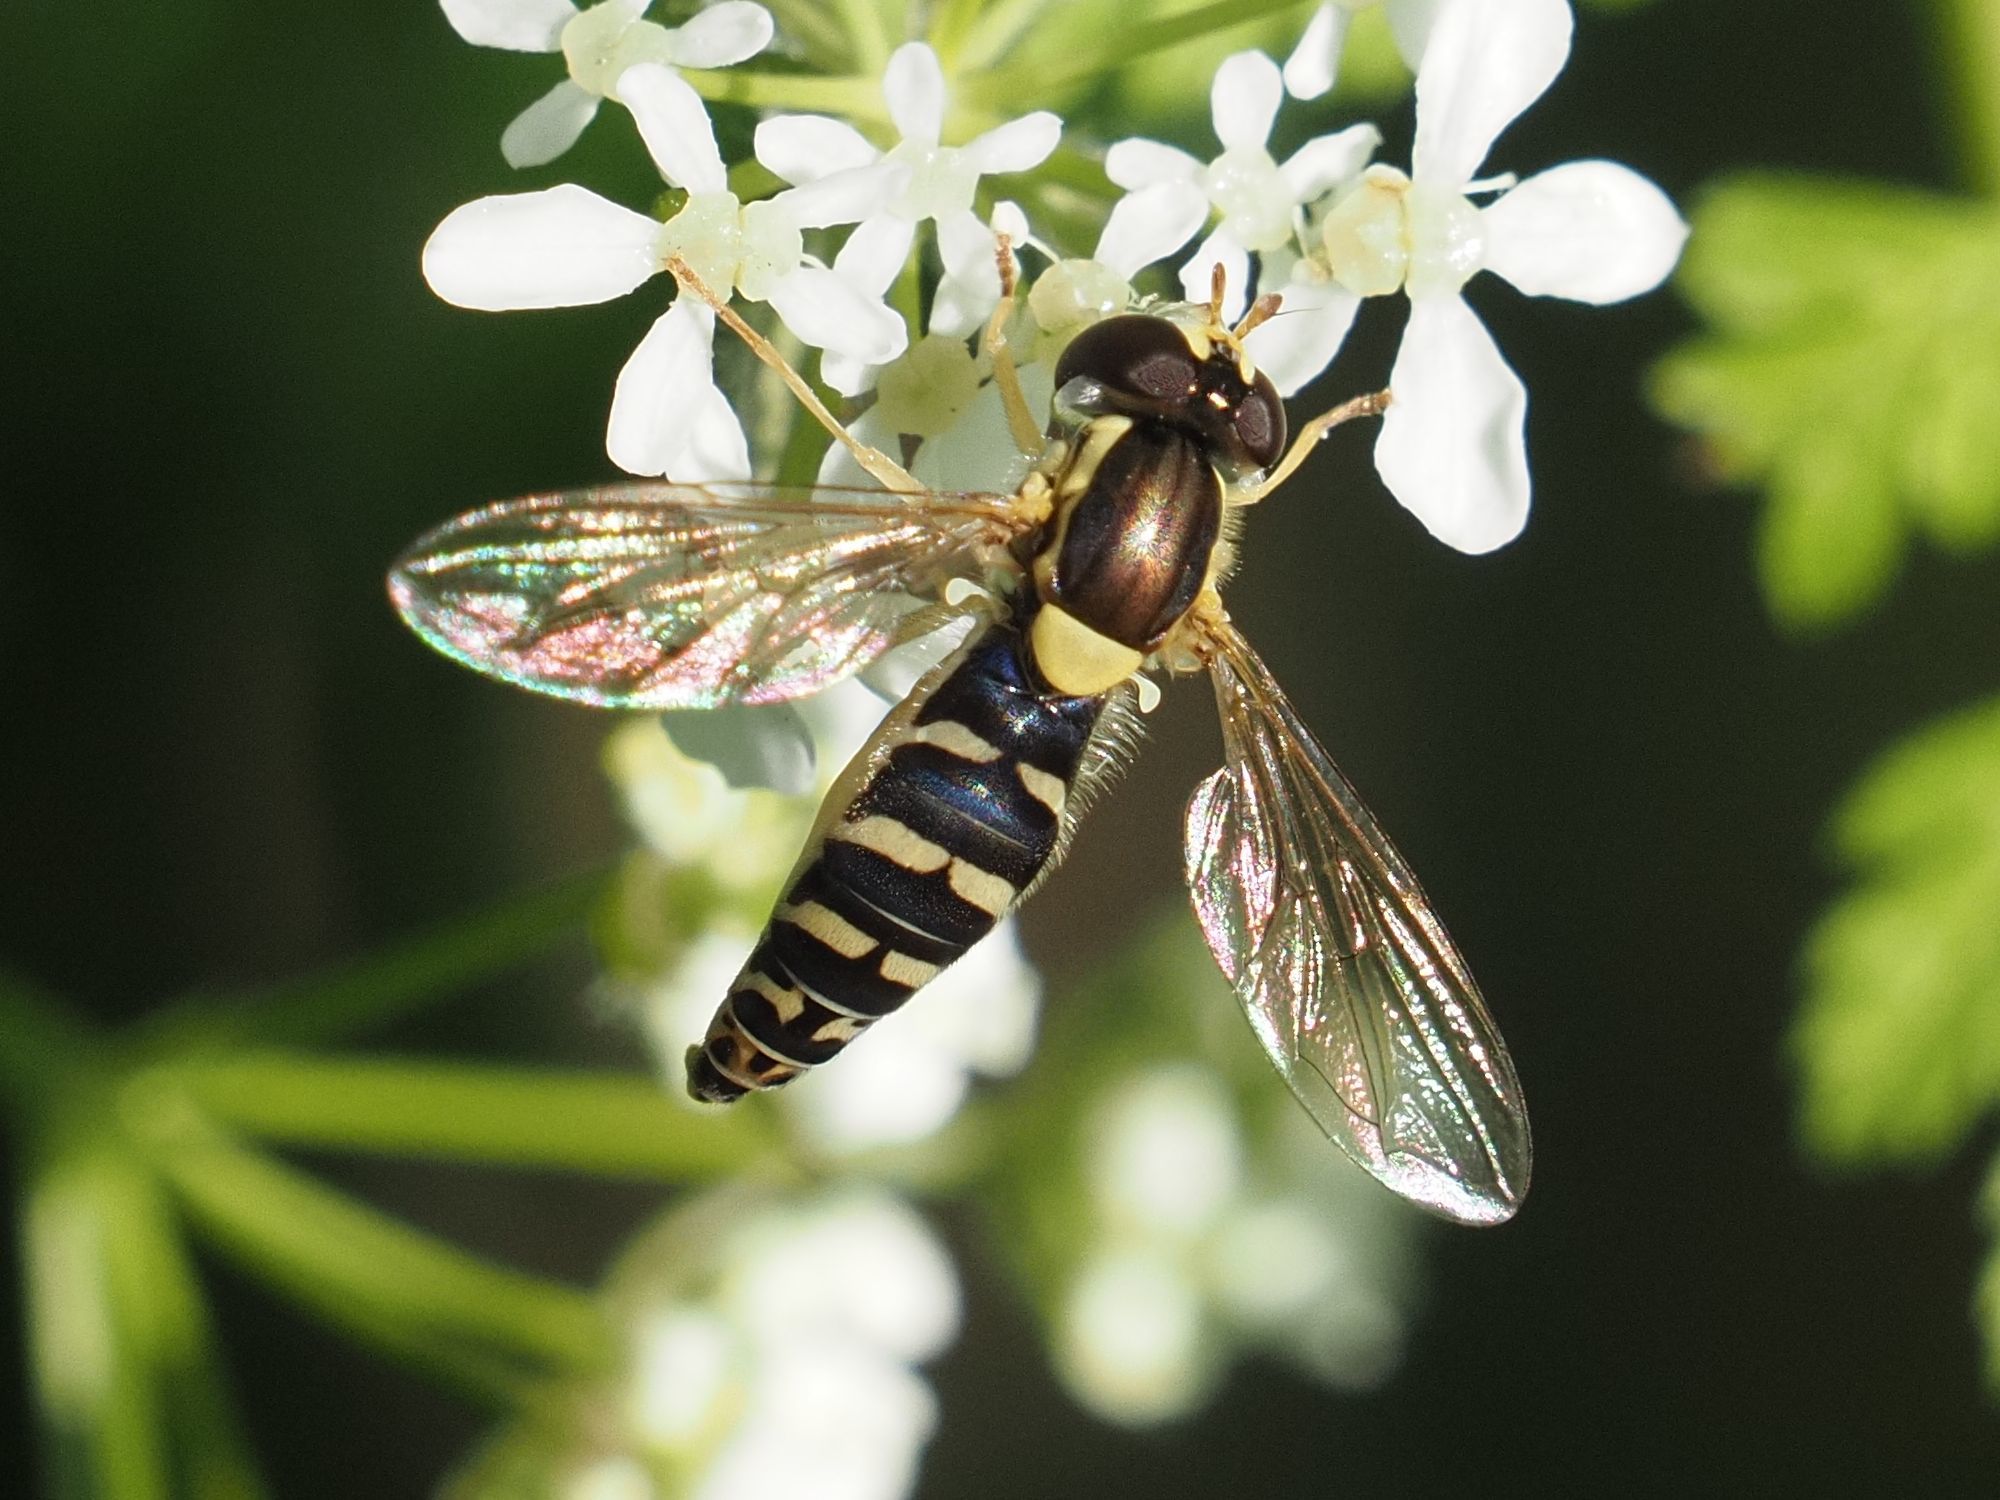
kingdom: Animalia
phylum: Arthropoda
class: Insecta
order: Diptera
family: Syrphidae
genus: Sphaerophoria
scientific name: Sphaerophoria
